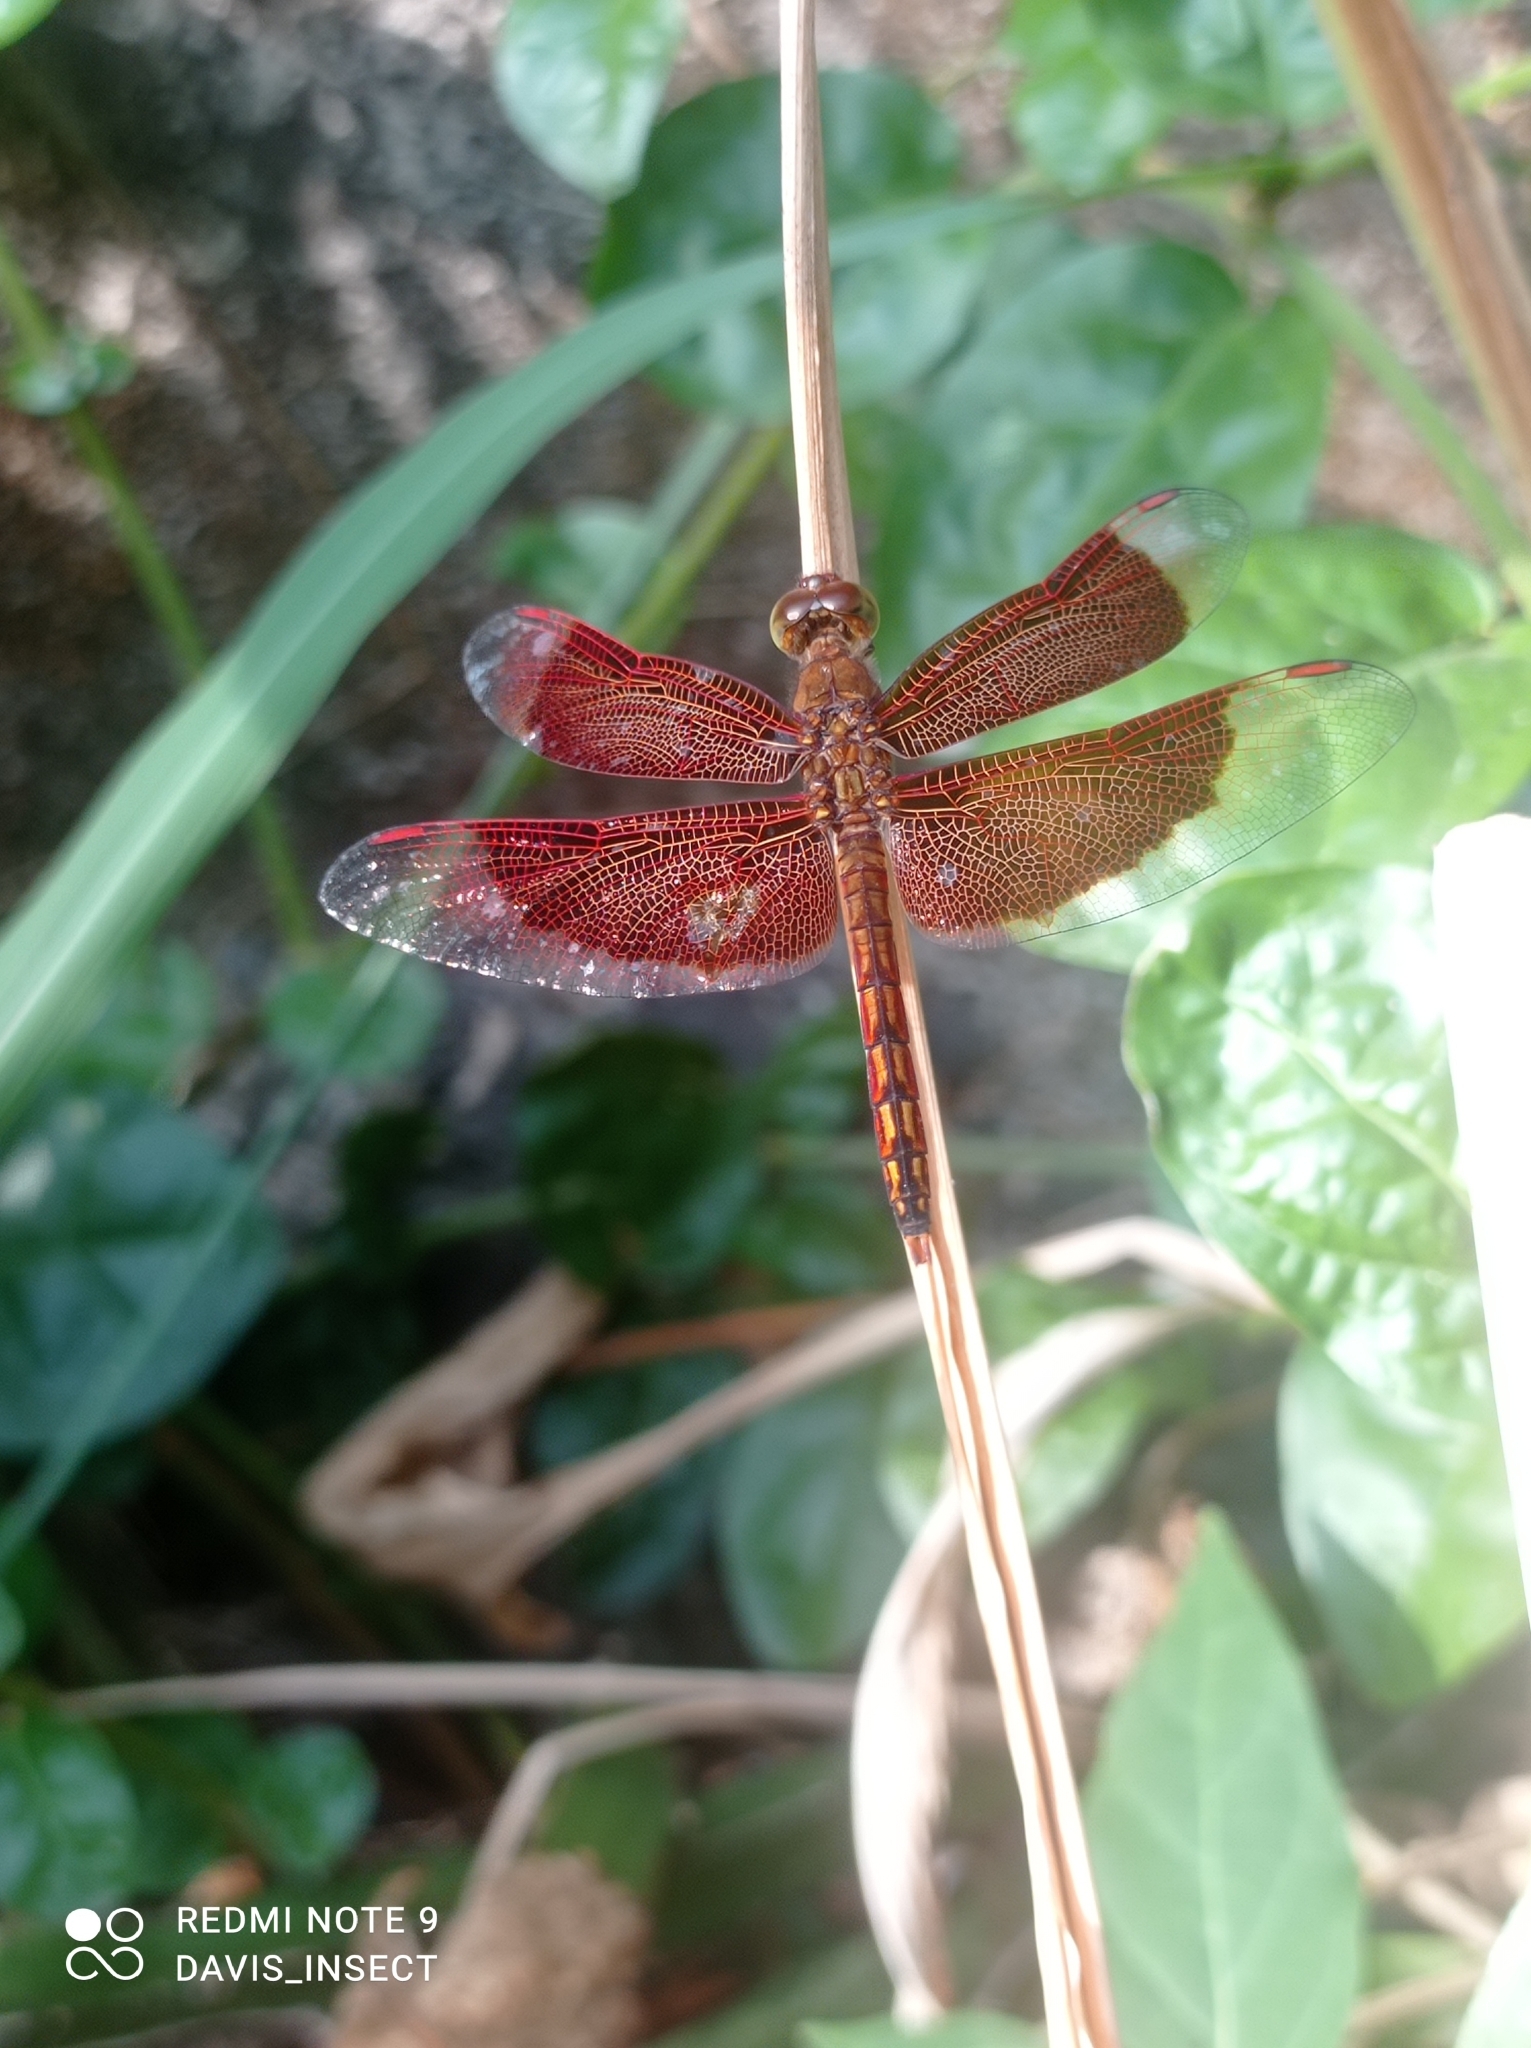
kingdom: Animalia
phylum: Arthropoda
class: Insecta
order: Odonata
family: Libellulidae
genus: Neurothemis
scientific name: Neurothemis ramburii
